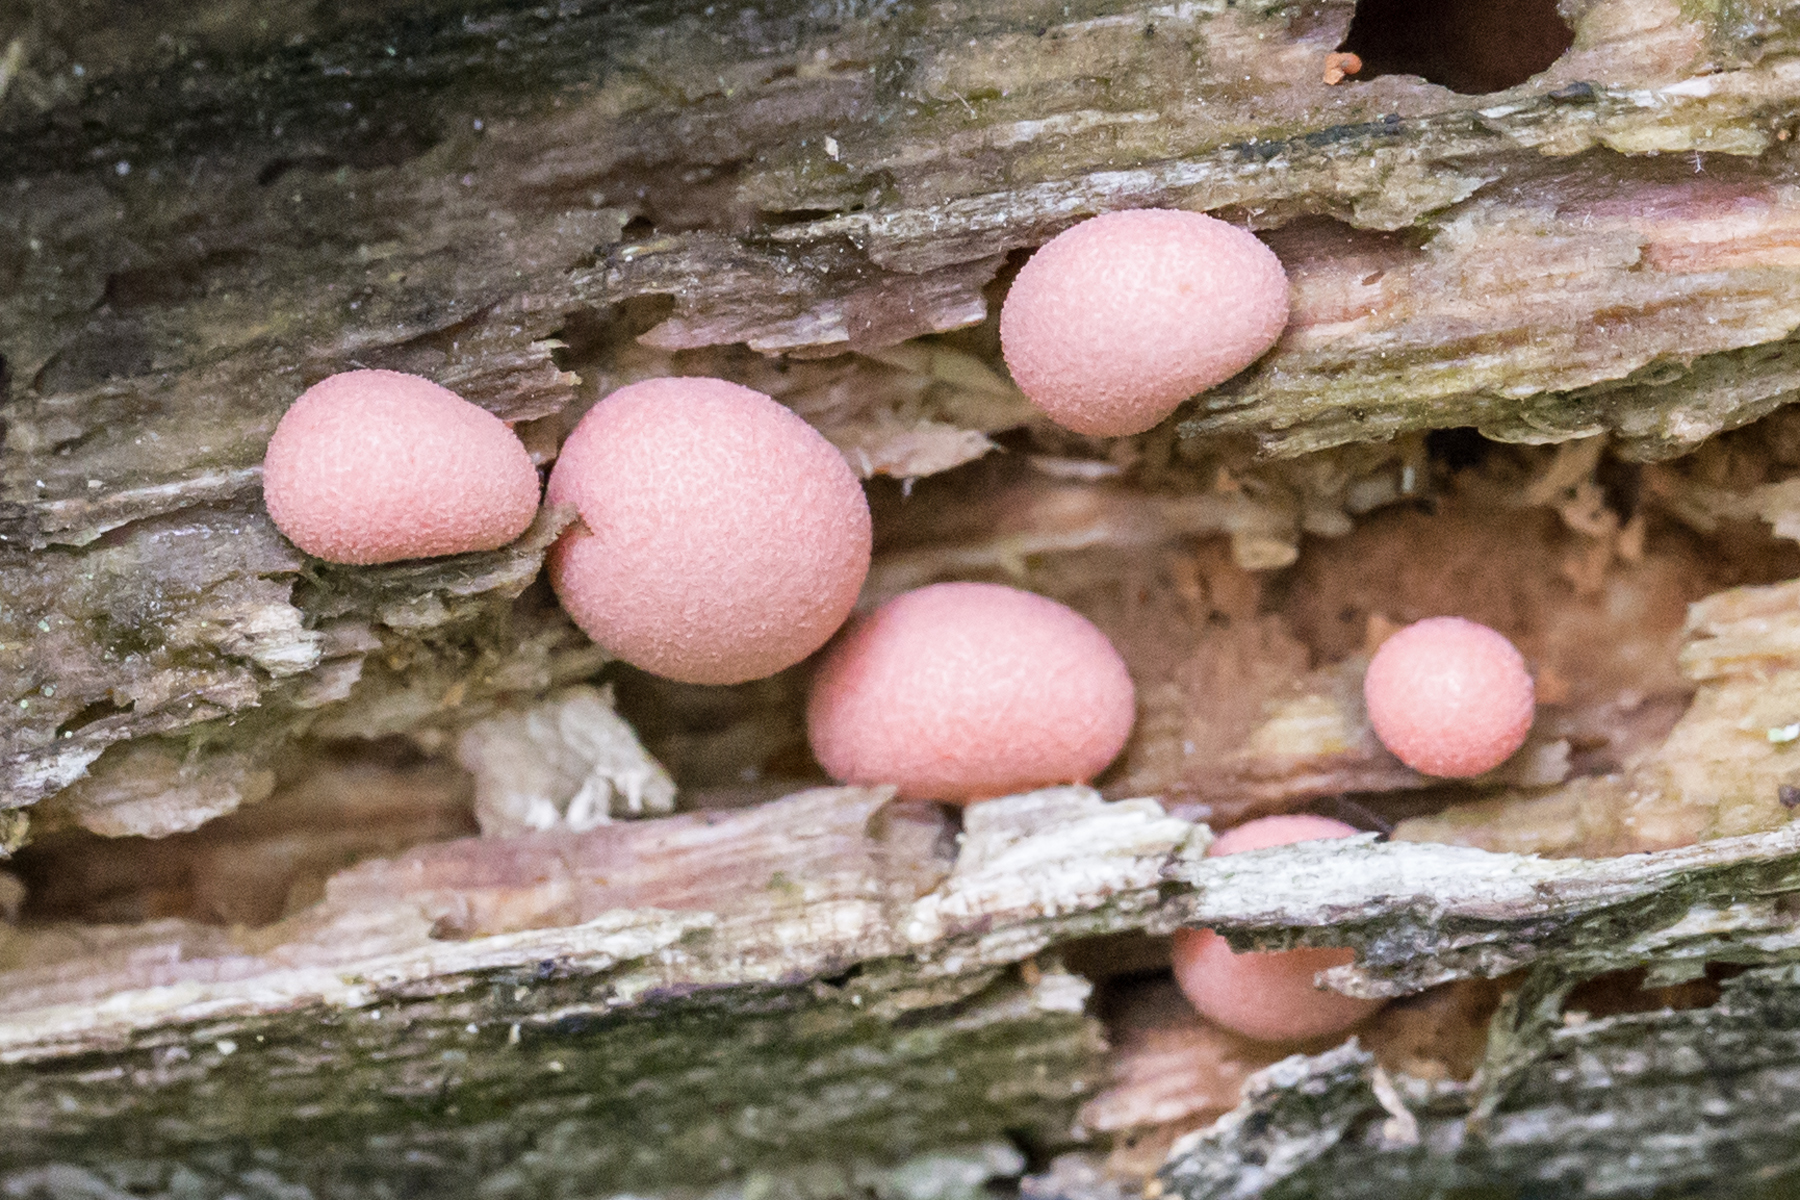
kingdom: Protozoa
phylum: Mycetozoa
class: Myxomycetes
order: Cribrariales
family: Tubiferaceae
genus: Lycogala
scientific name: Lycogala epidendrum
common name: Wolf's milk
